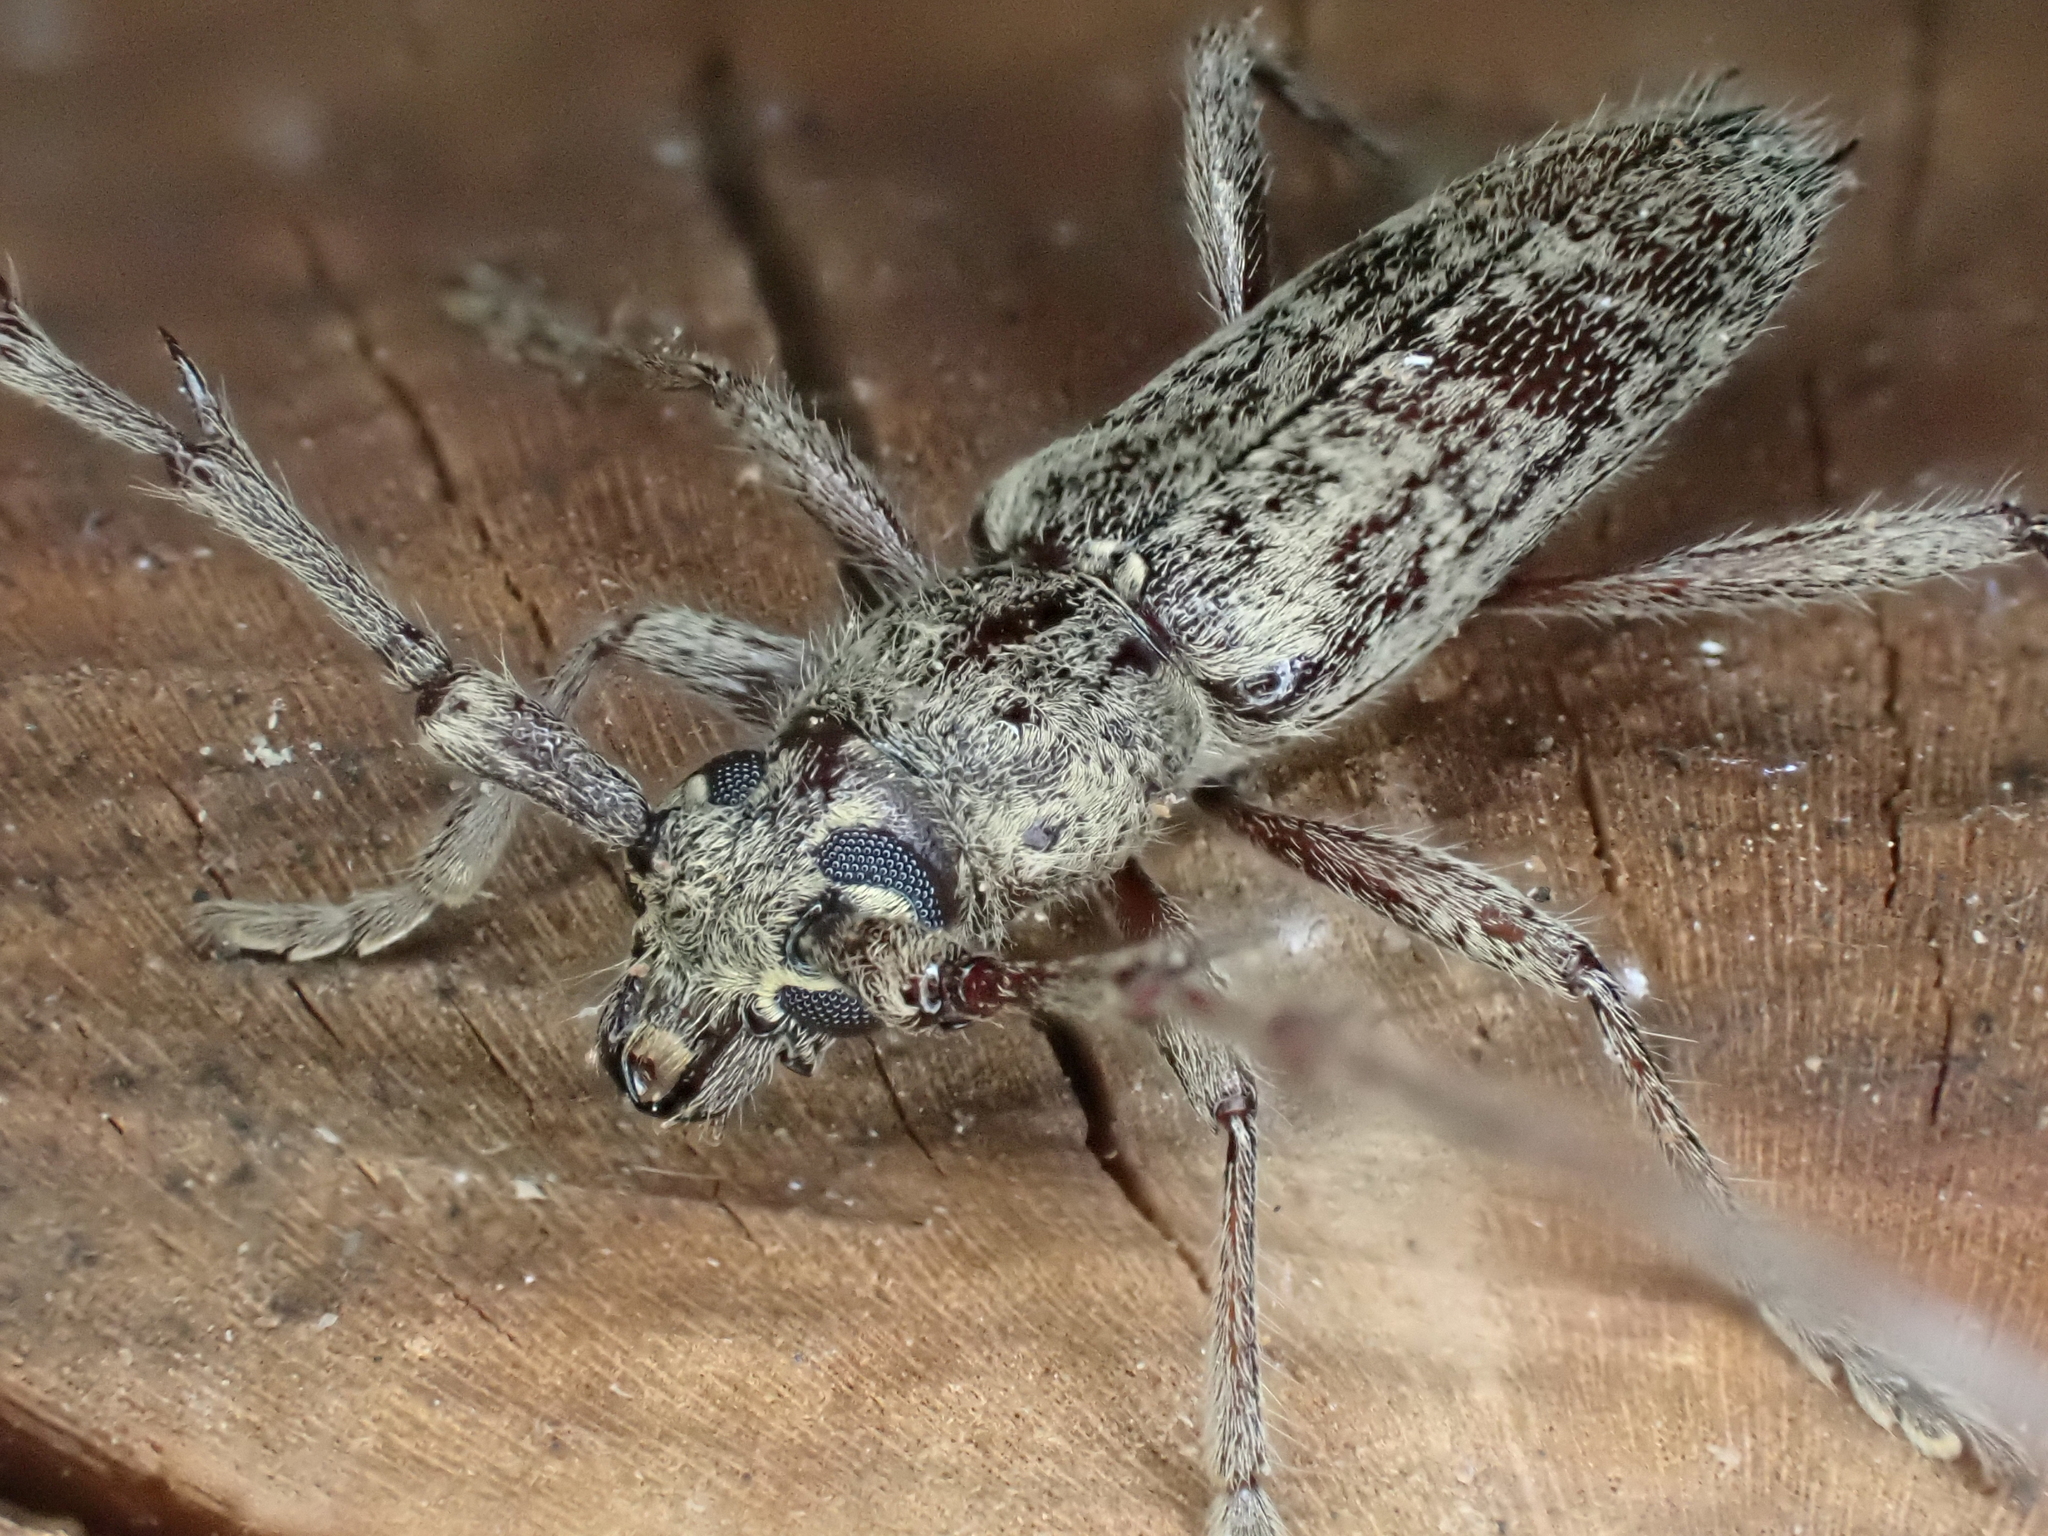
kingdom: Animalia
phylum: Arthropoda
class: Insecta
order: Coleoptera
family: Cerambycidae
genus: Elaphidion
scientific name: Elaphidion mucronatum
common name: Spined oak borer
